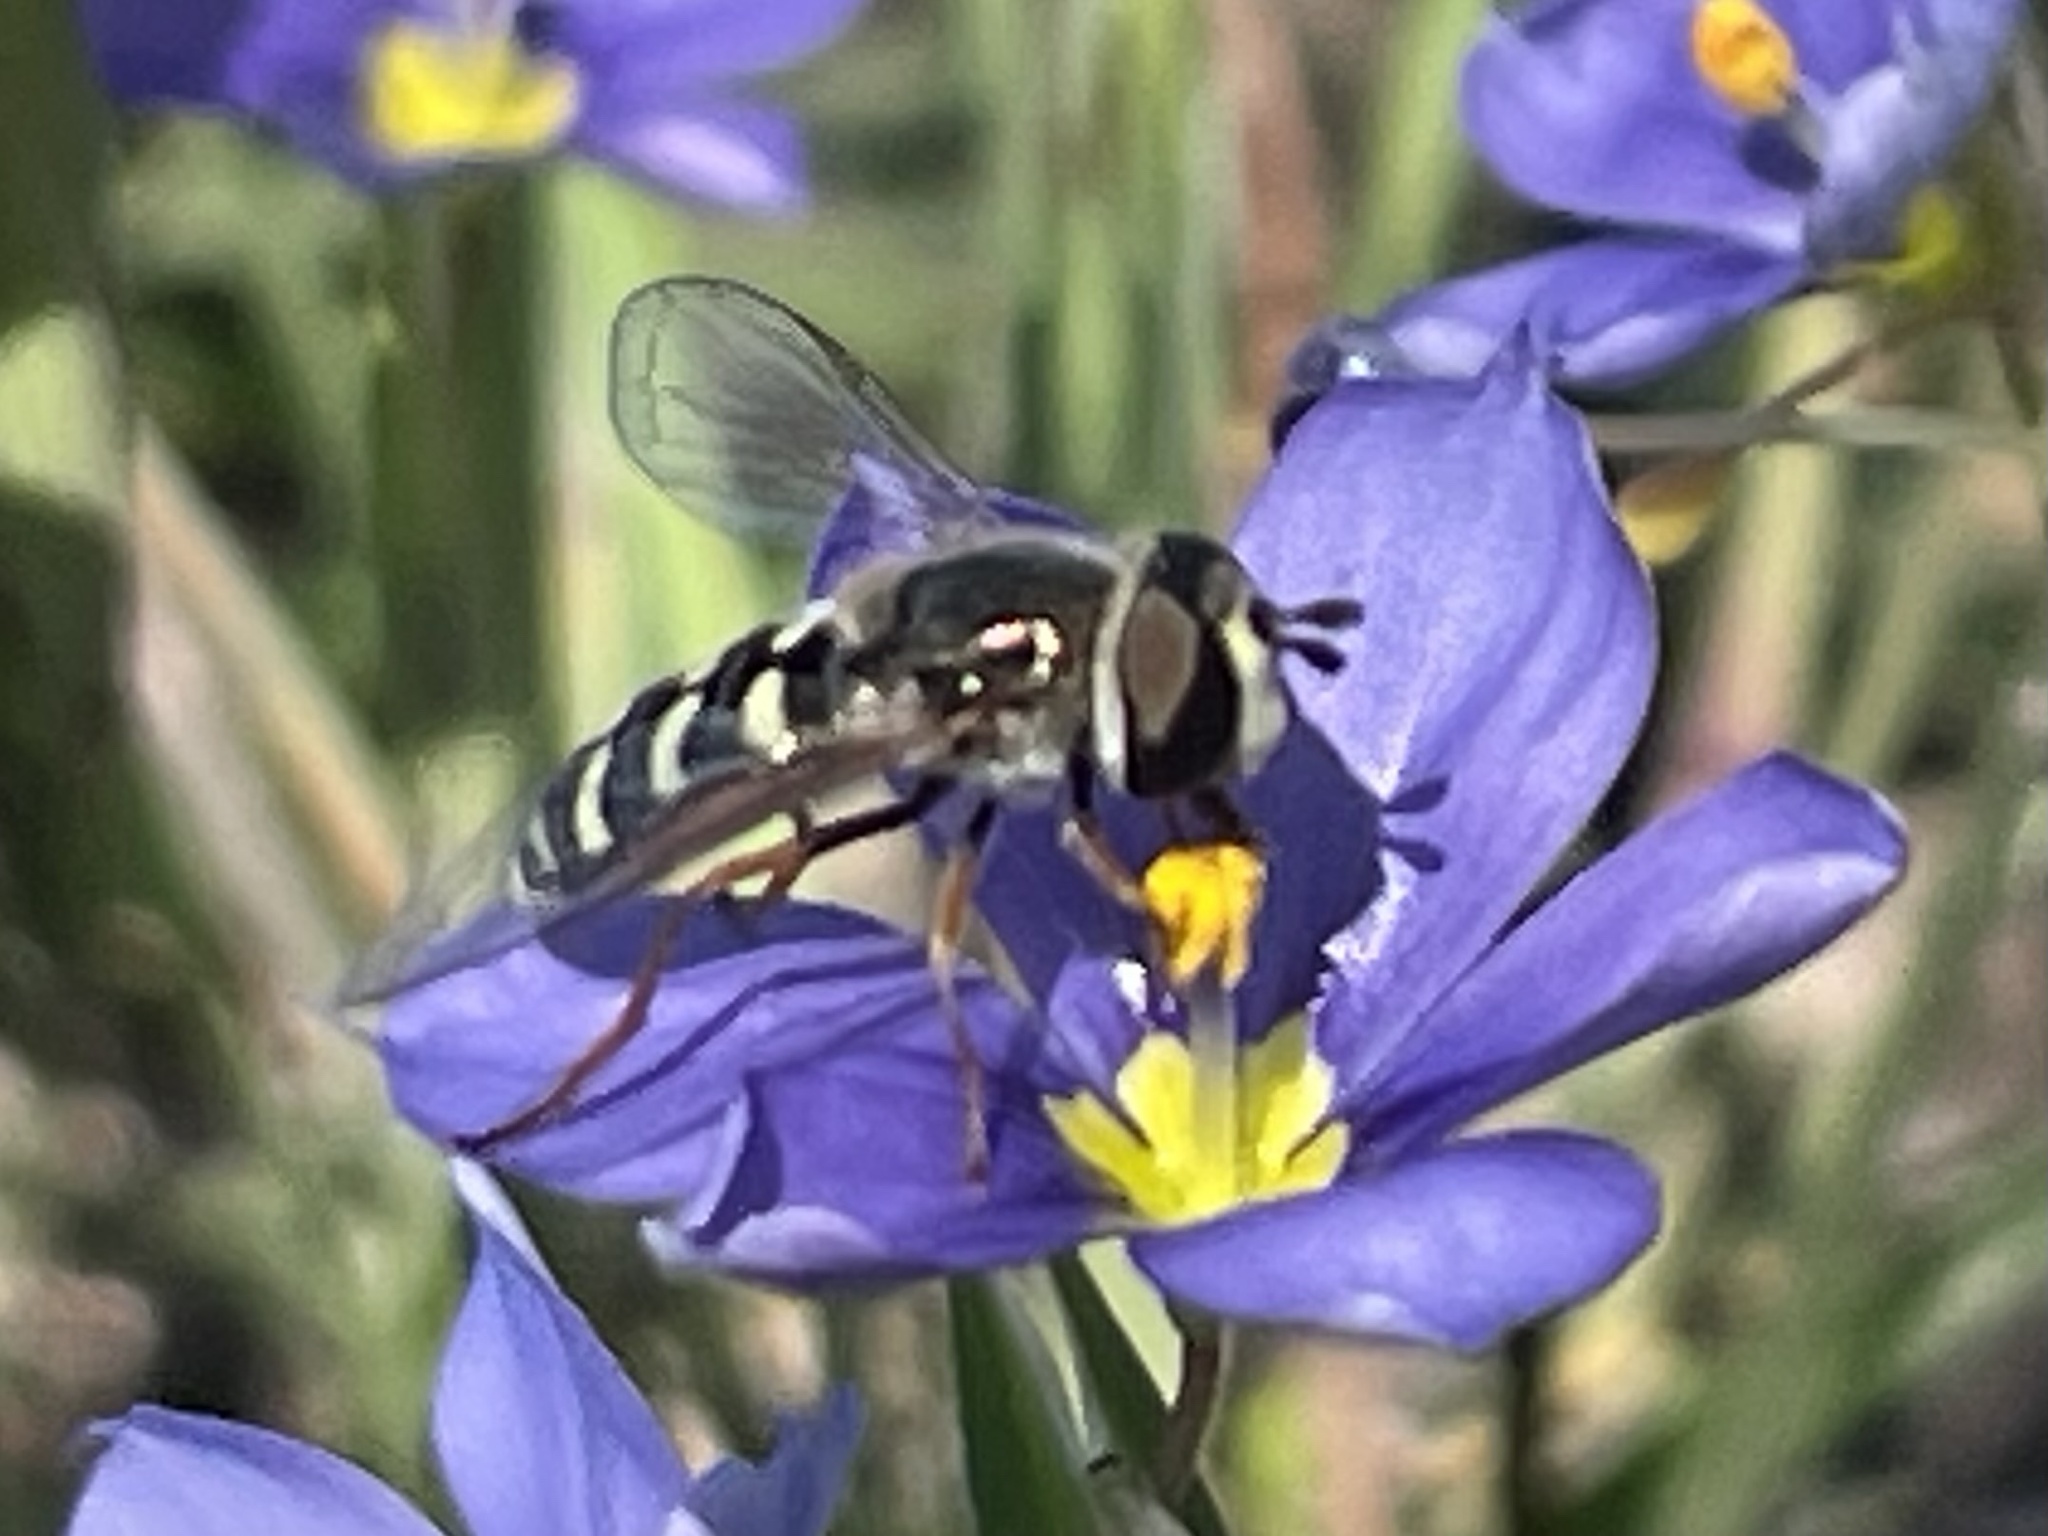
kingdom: Animalia
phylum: Arthropoda
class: Insecta
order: Diptera
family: Syrphidae
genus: Eupeodes
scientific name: Eupeodes volucris
